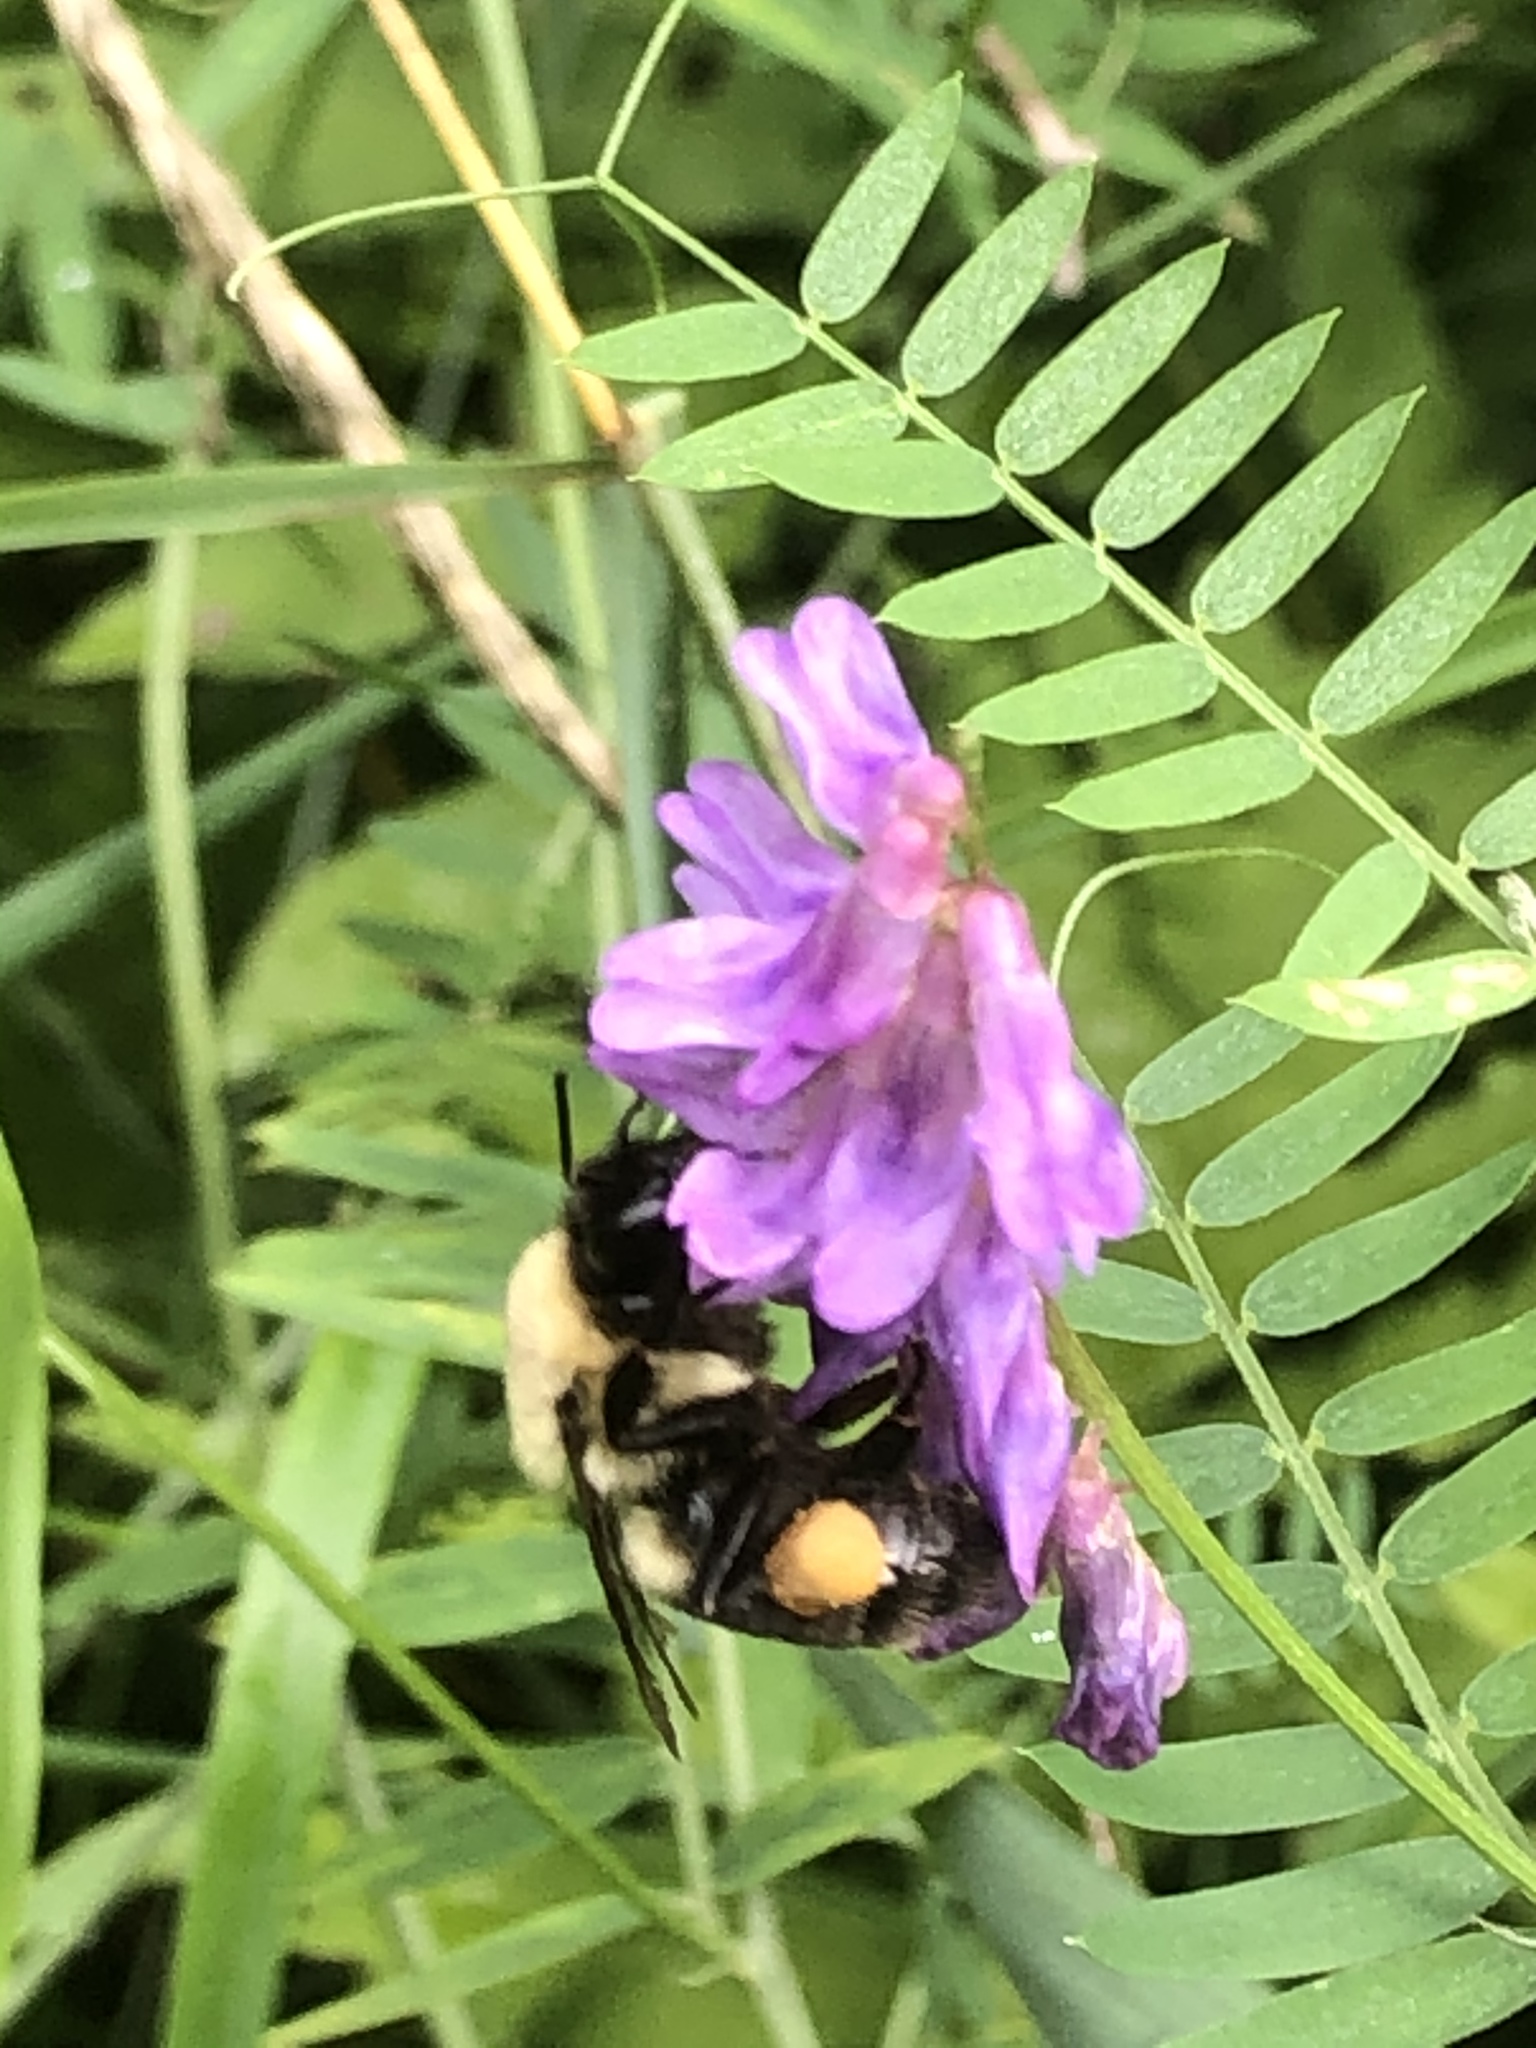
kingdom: Animalia
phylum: Arthropoda
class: Insecta
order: Hymenoptera
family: Apidae
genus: Bombus
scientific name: Bombus impatiens
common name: Common eastern bumble bee
